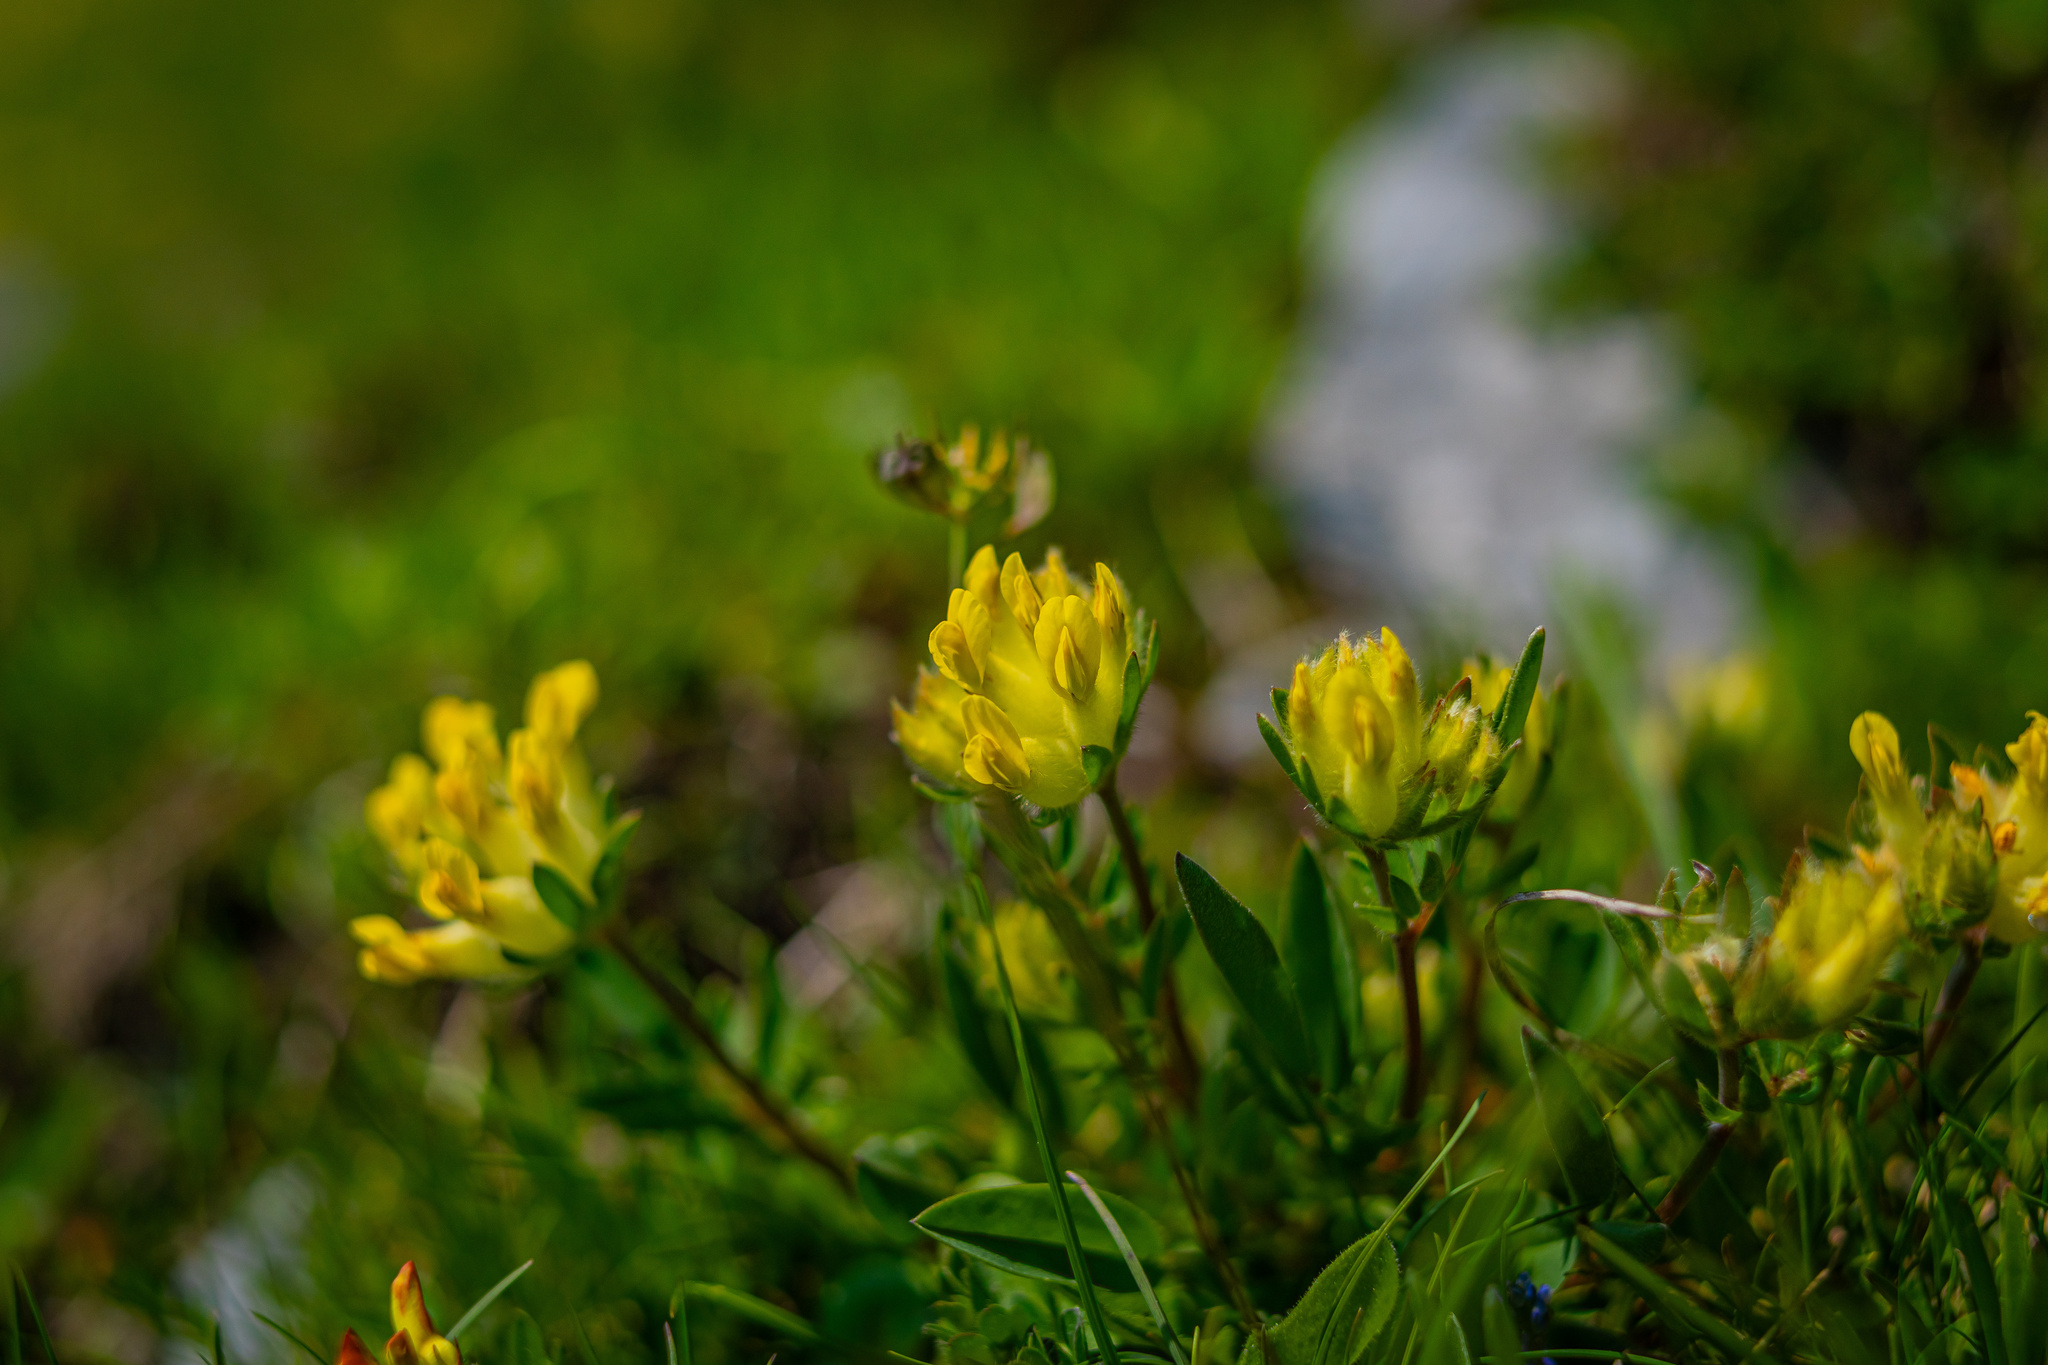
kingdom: Plantae
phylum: Tracheophyta
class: Magnoliopsida
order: Fabales
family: Fabaceae
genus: Anthyllis
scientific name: Anthyllis vulneraria
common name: Kidney vetch
